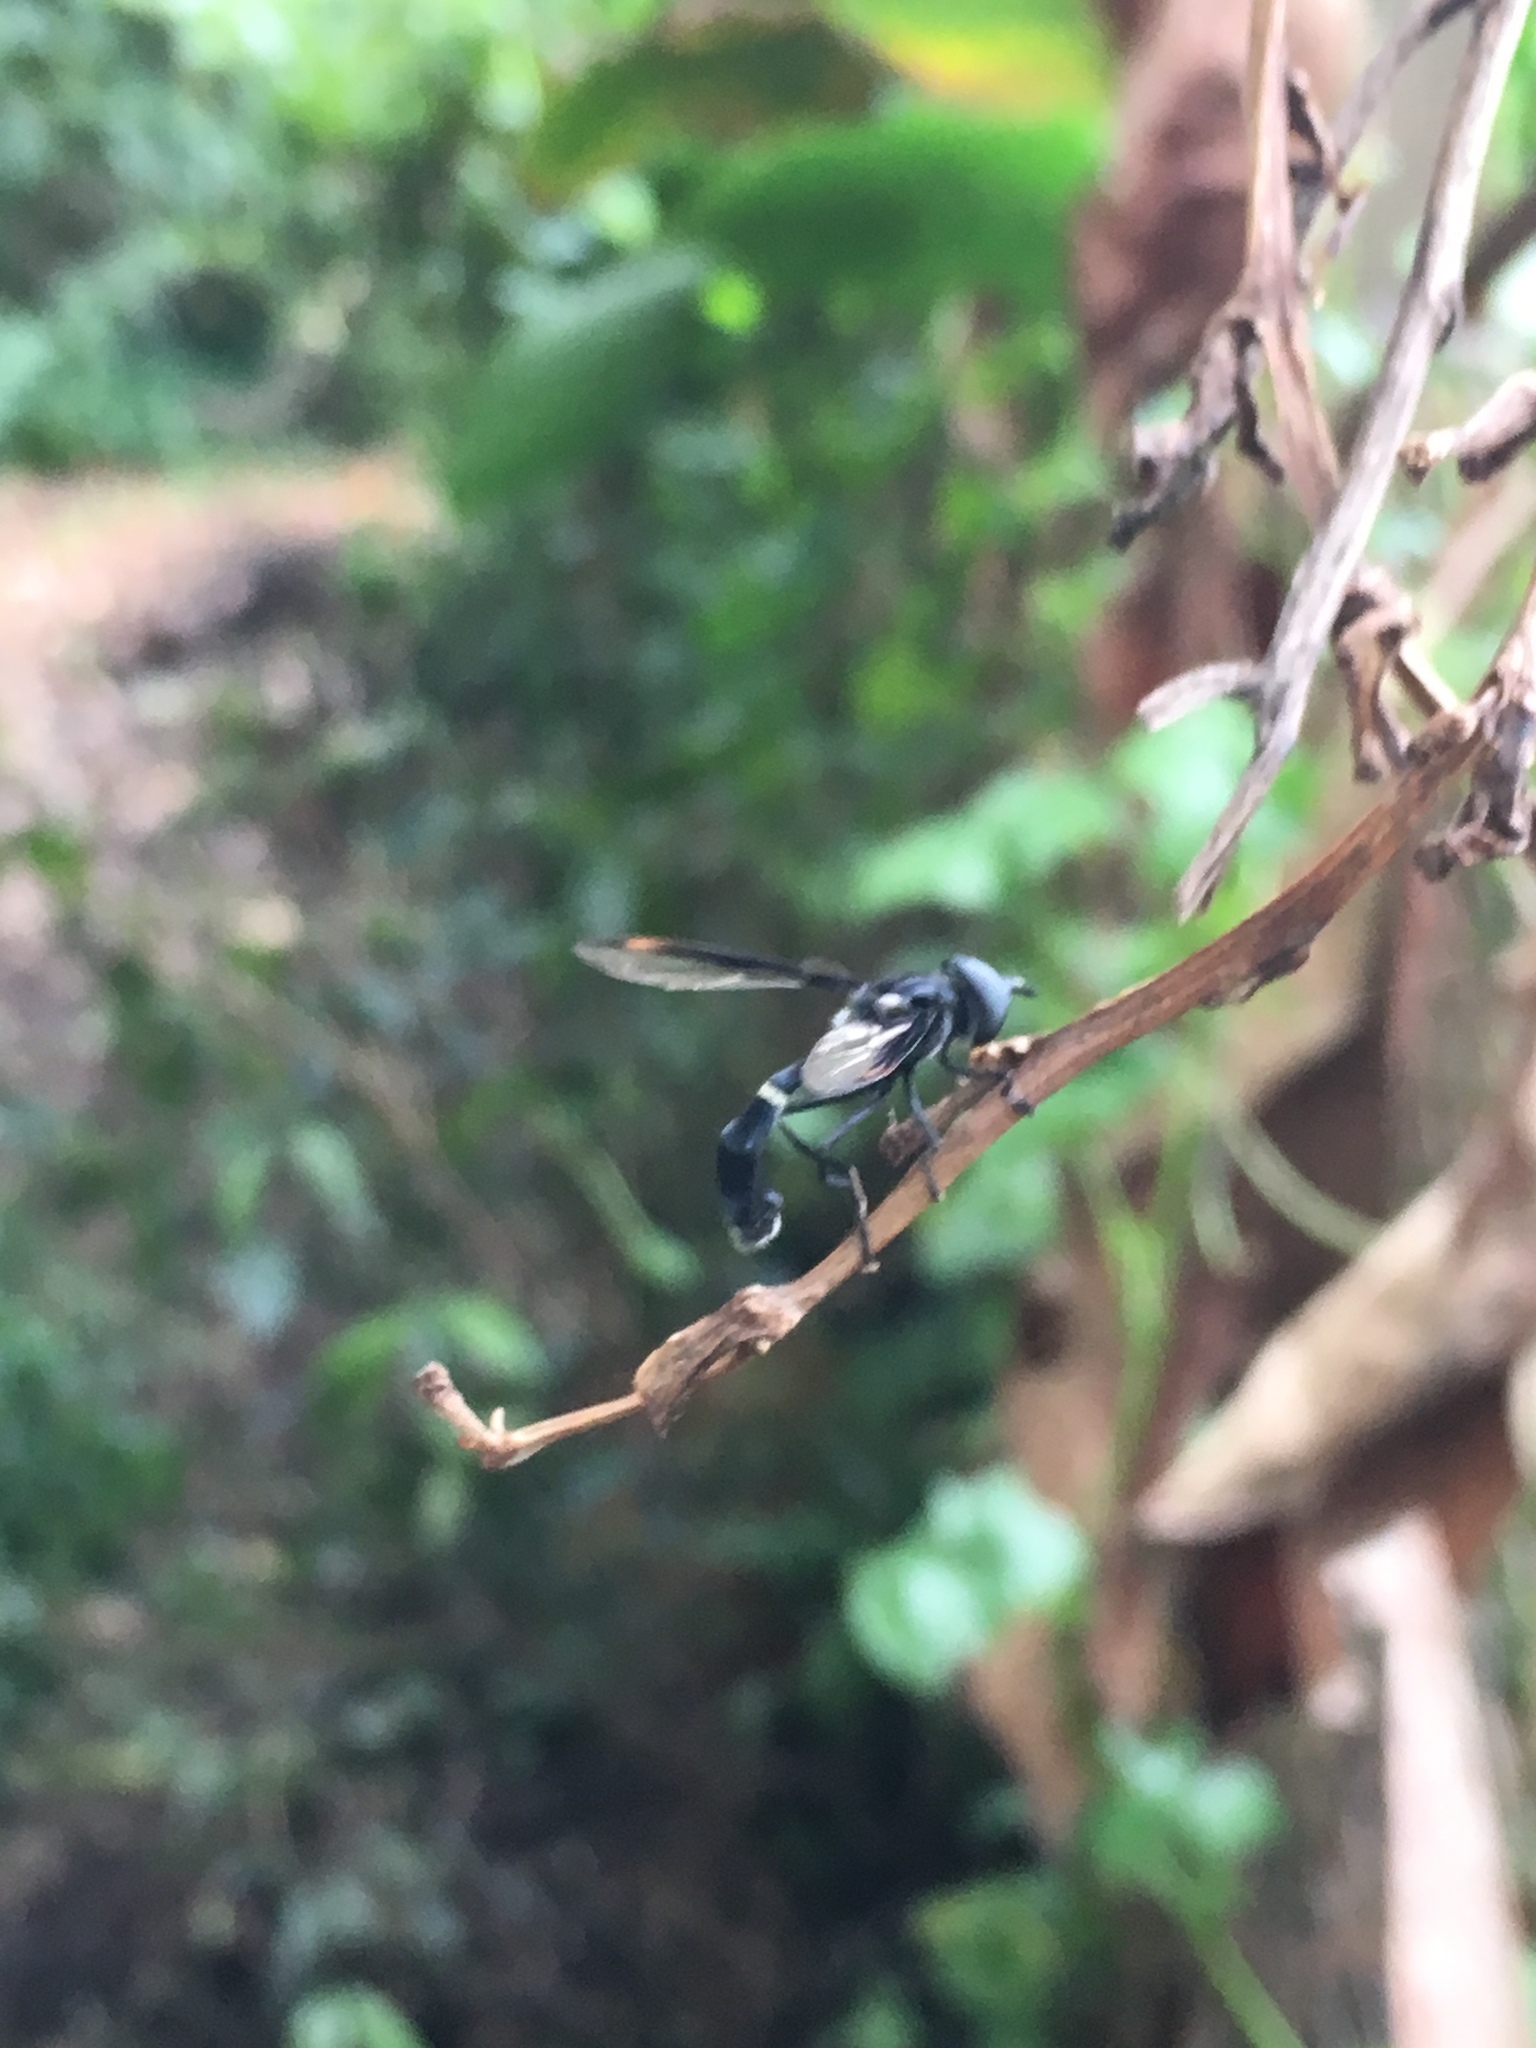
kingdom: Animalia
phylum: Arthropoda
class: Insecta
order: Diptera
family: Syrphidae
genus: Mimocalla
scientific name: Mimocalla giganteus
